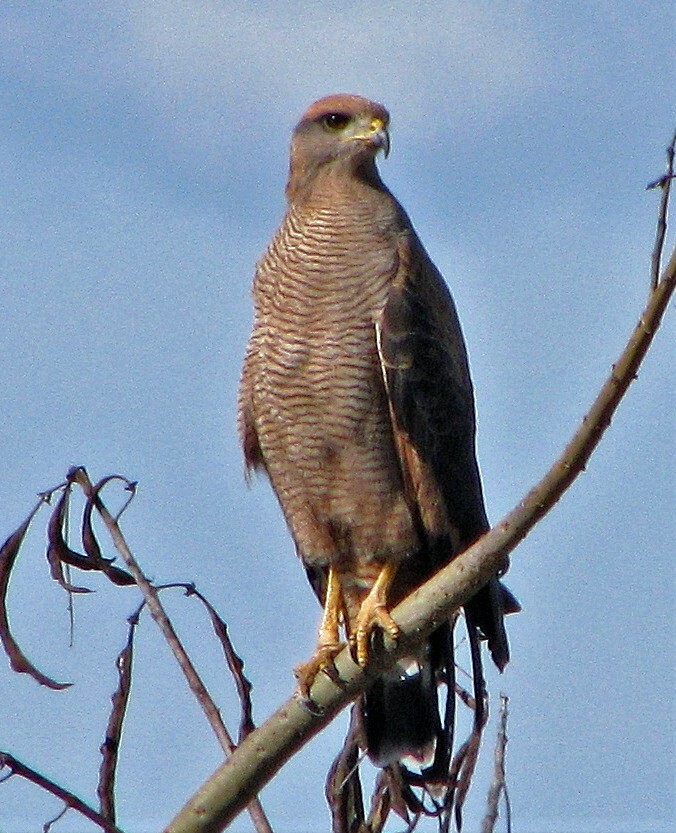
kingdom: Animalia
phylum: Chordata
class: Aves
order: Accipitriformes
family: Accipitridae
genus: Buteogallus
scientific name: Buteogallus meridionalis
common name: Savanna hawk
